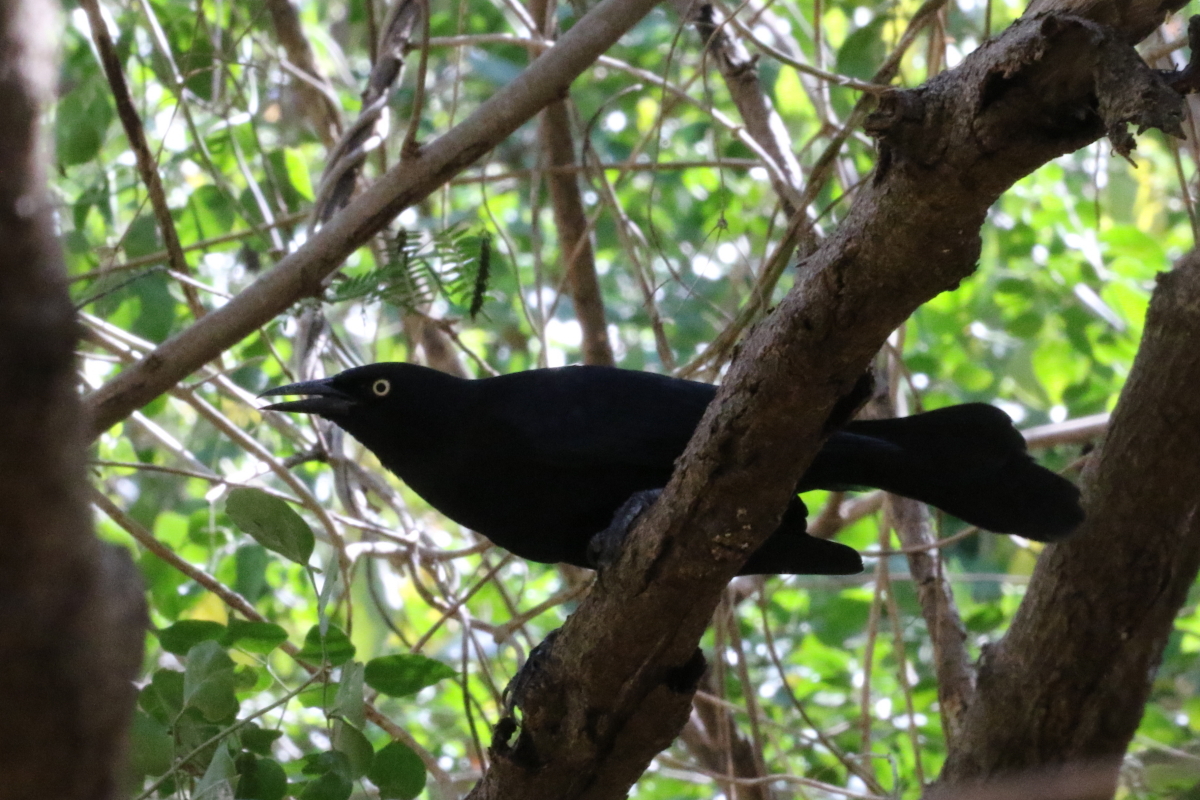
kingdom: Animalia
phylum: Chordata
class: Aves
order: Passeriformes
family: Icteridae
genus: Quiscalus
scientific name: Quiscalus niger
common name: Greater antillean grackle
